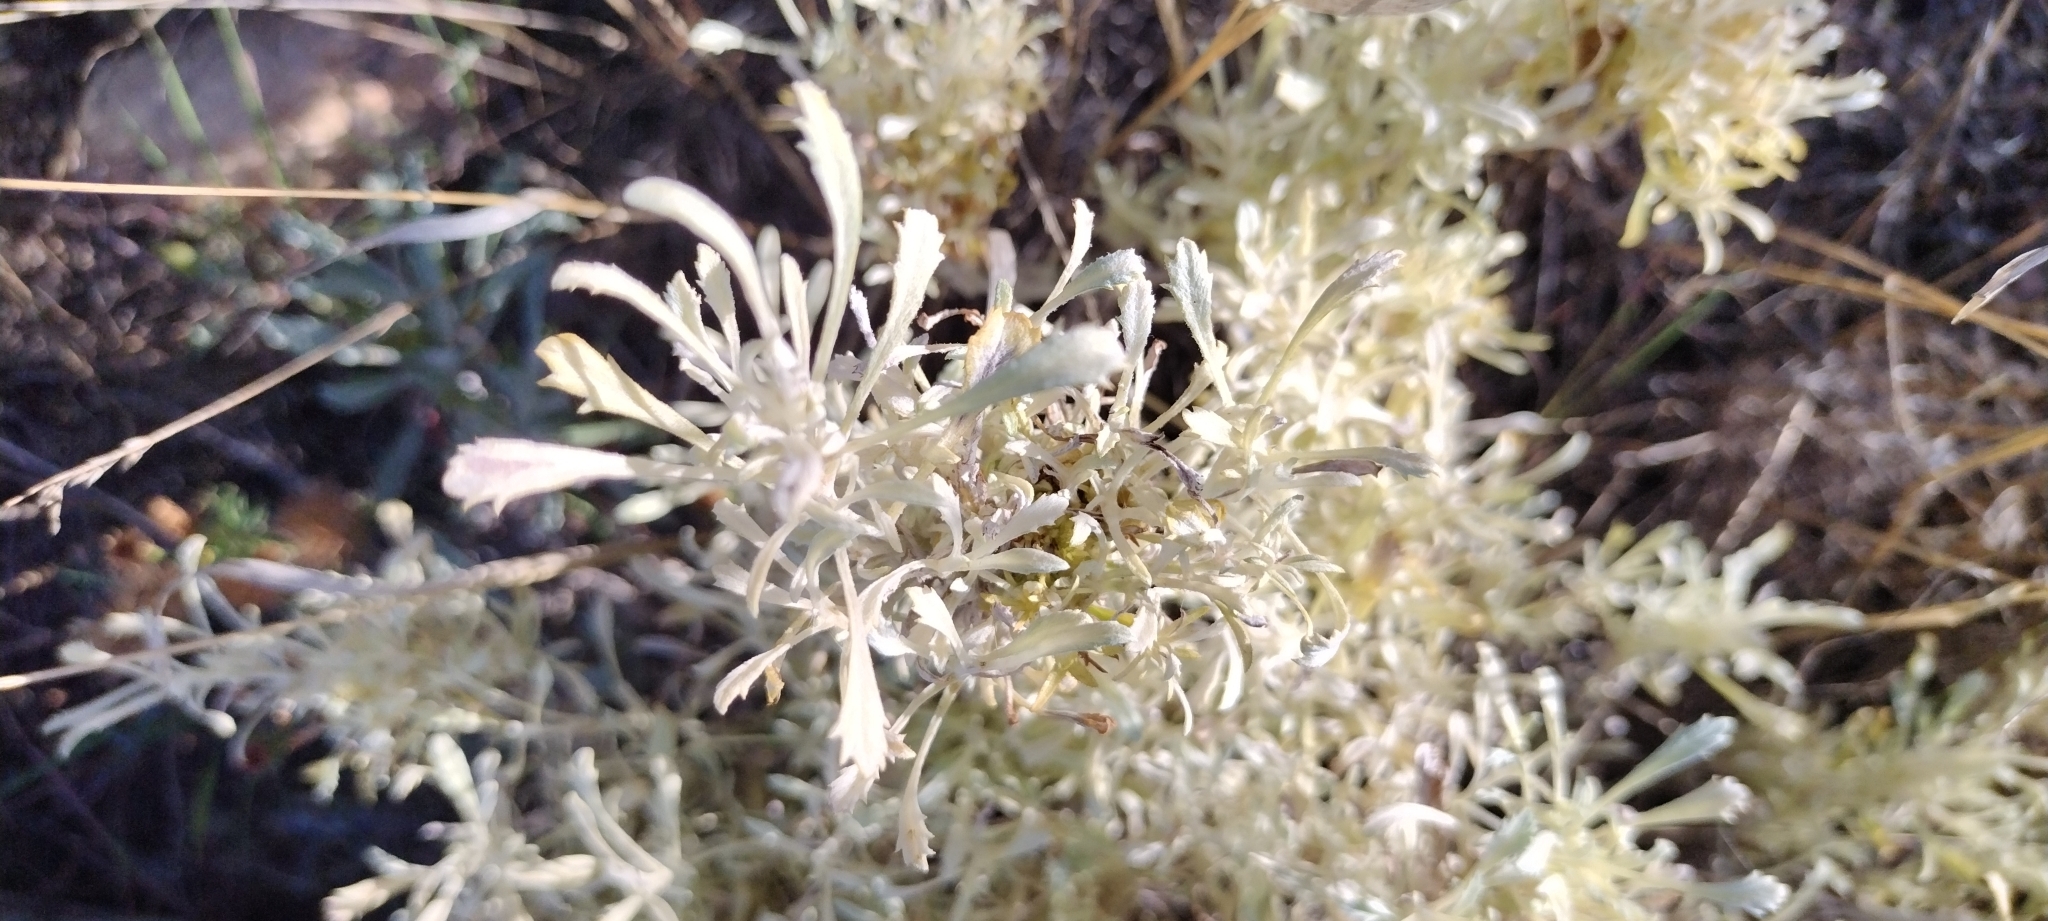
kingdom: Plantae
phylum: Tracheophyta
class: Magnoliopsida
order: Asterales
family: Asteraceae
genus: Artemisia
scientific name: Artemisia tridentata
